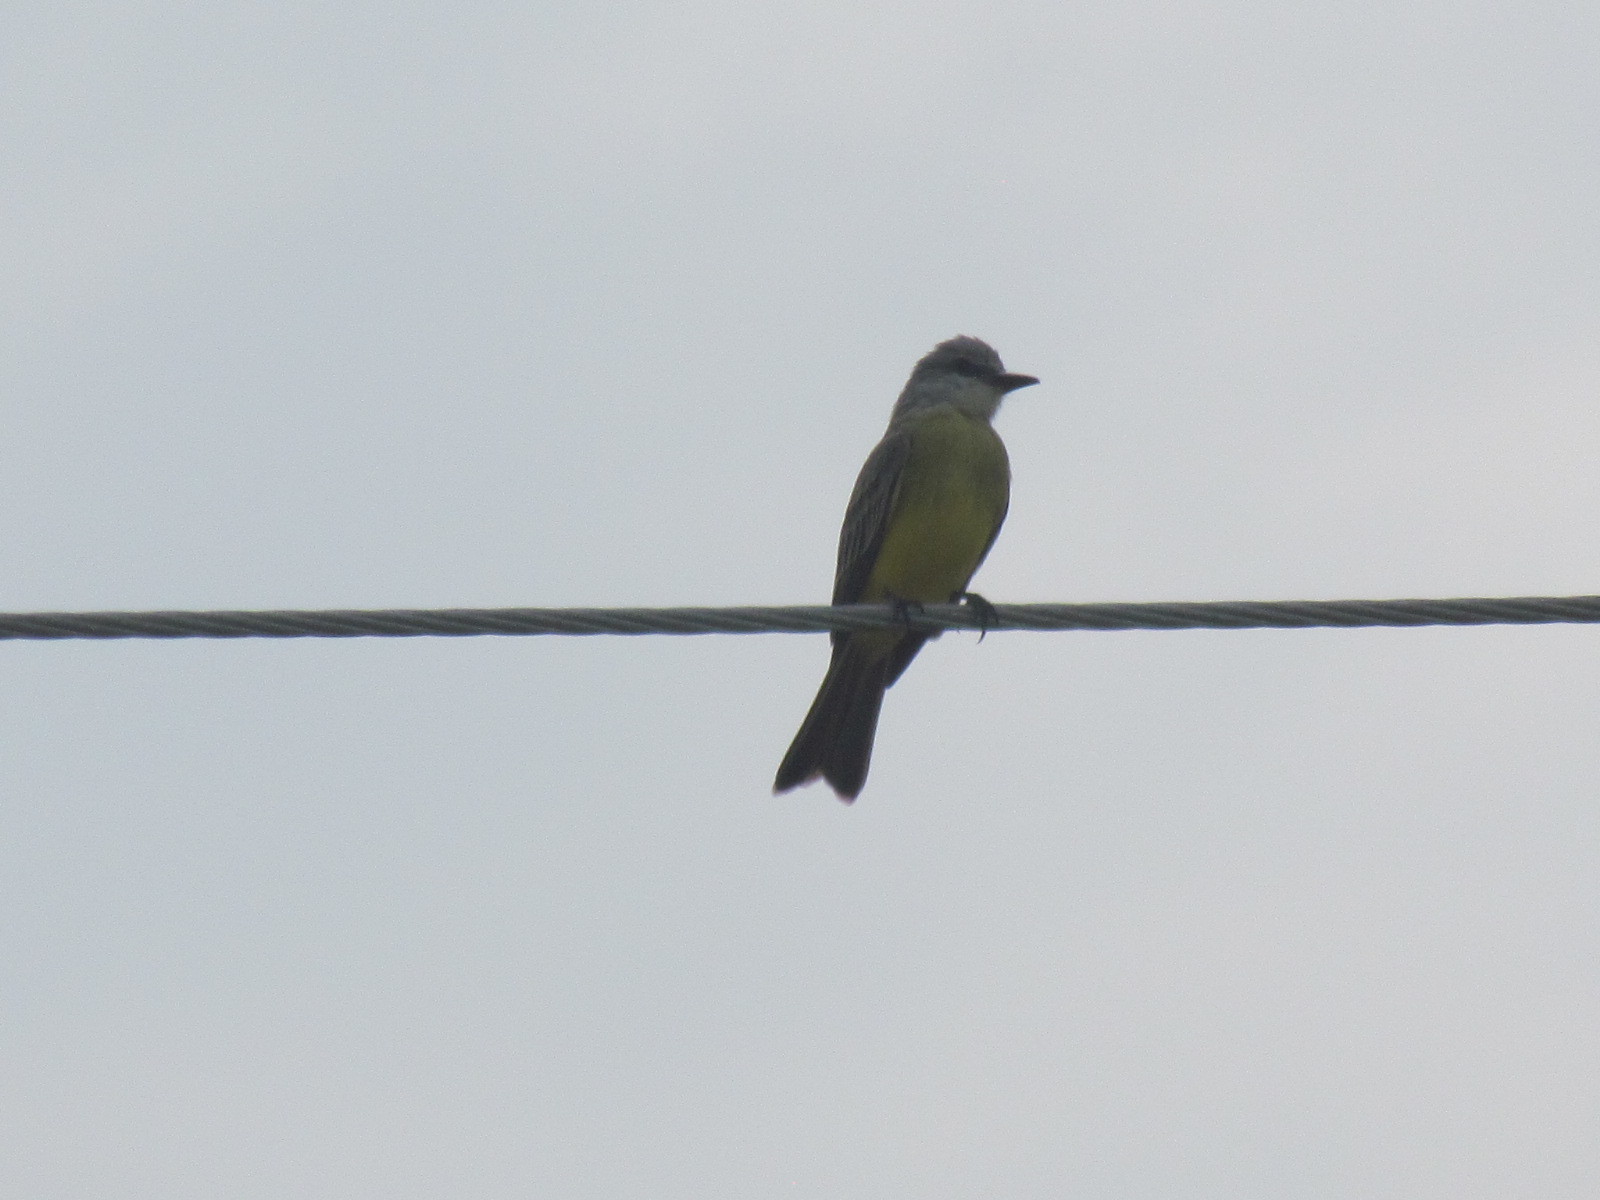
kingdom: Animalia
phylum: Chordata
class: Aves
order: Passeriformes
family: Tyrannidae
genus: Tyrannus
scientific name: Tyrannus melancholicus
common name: Tropical kingbird
